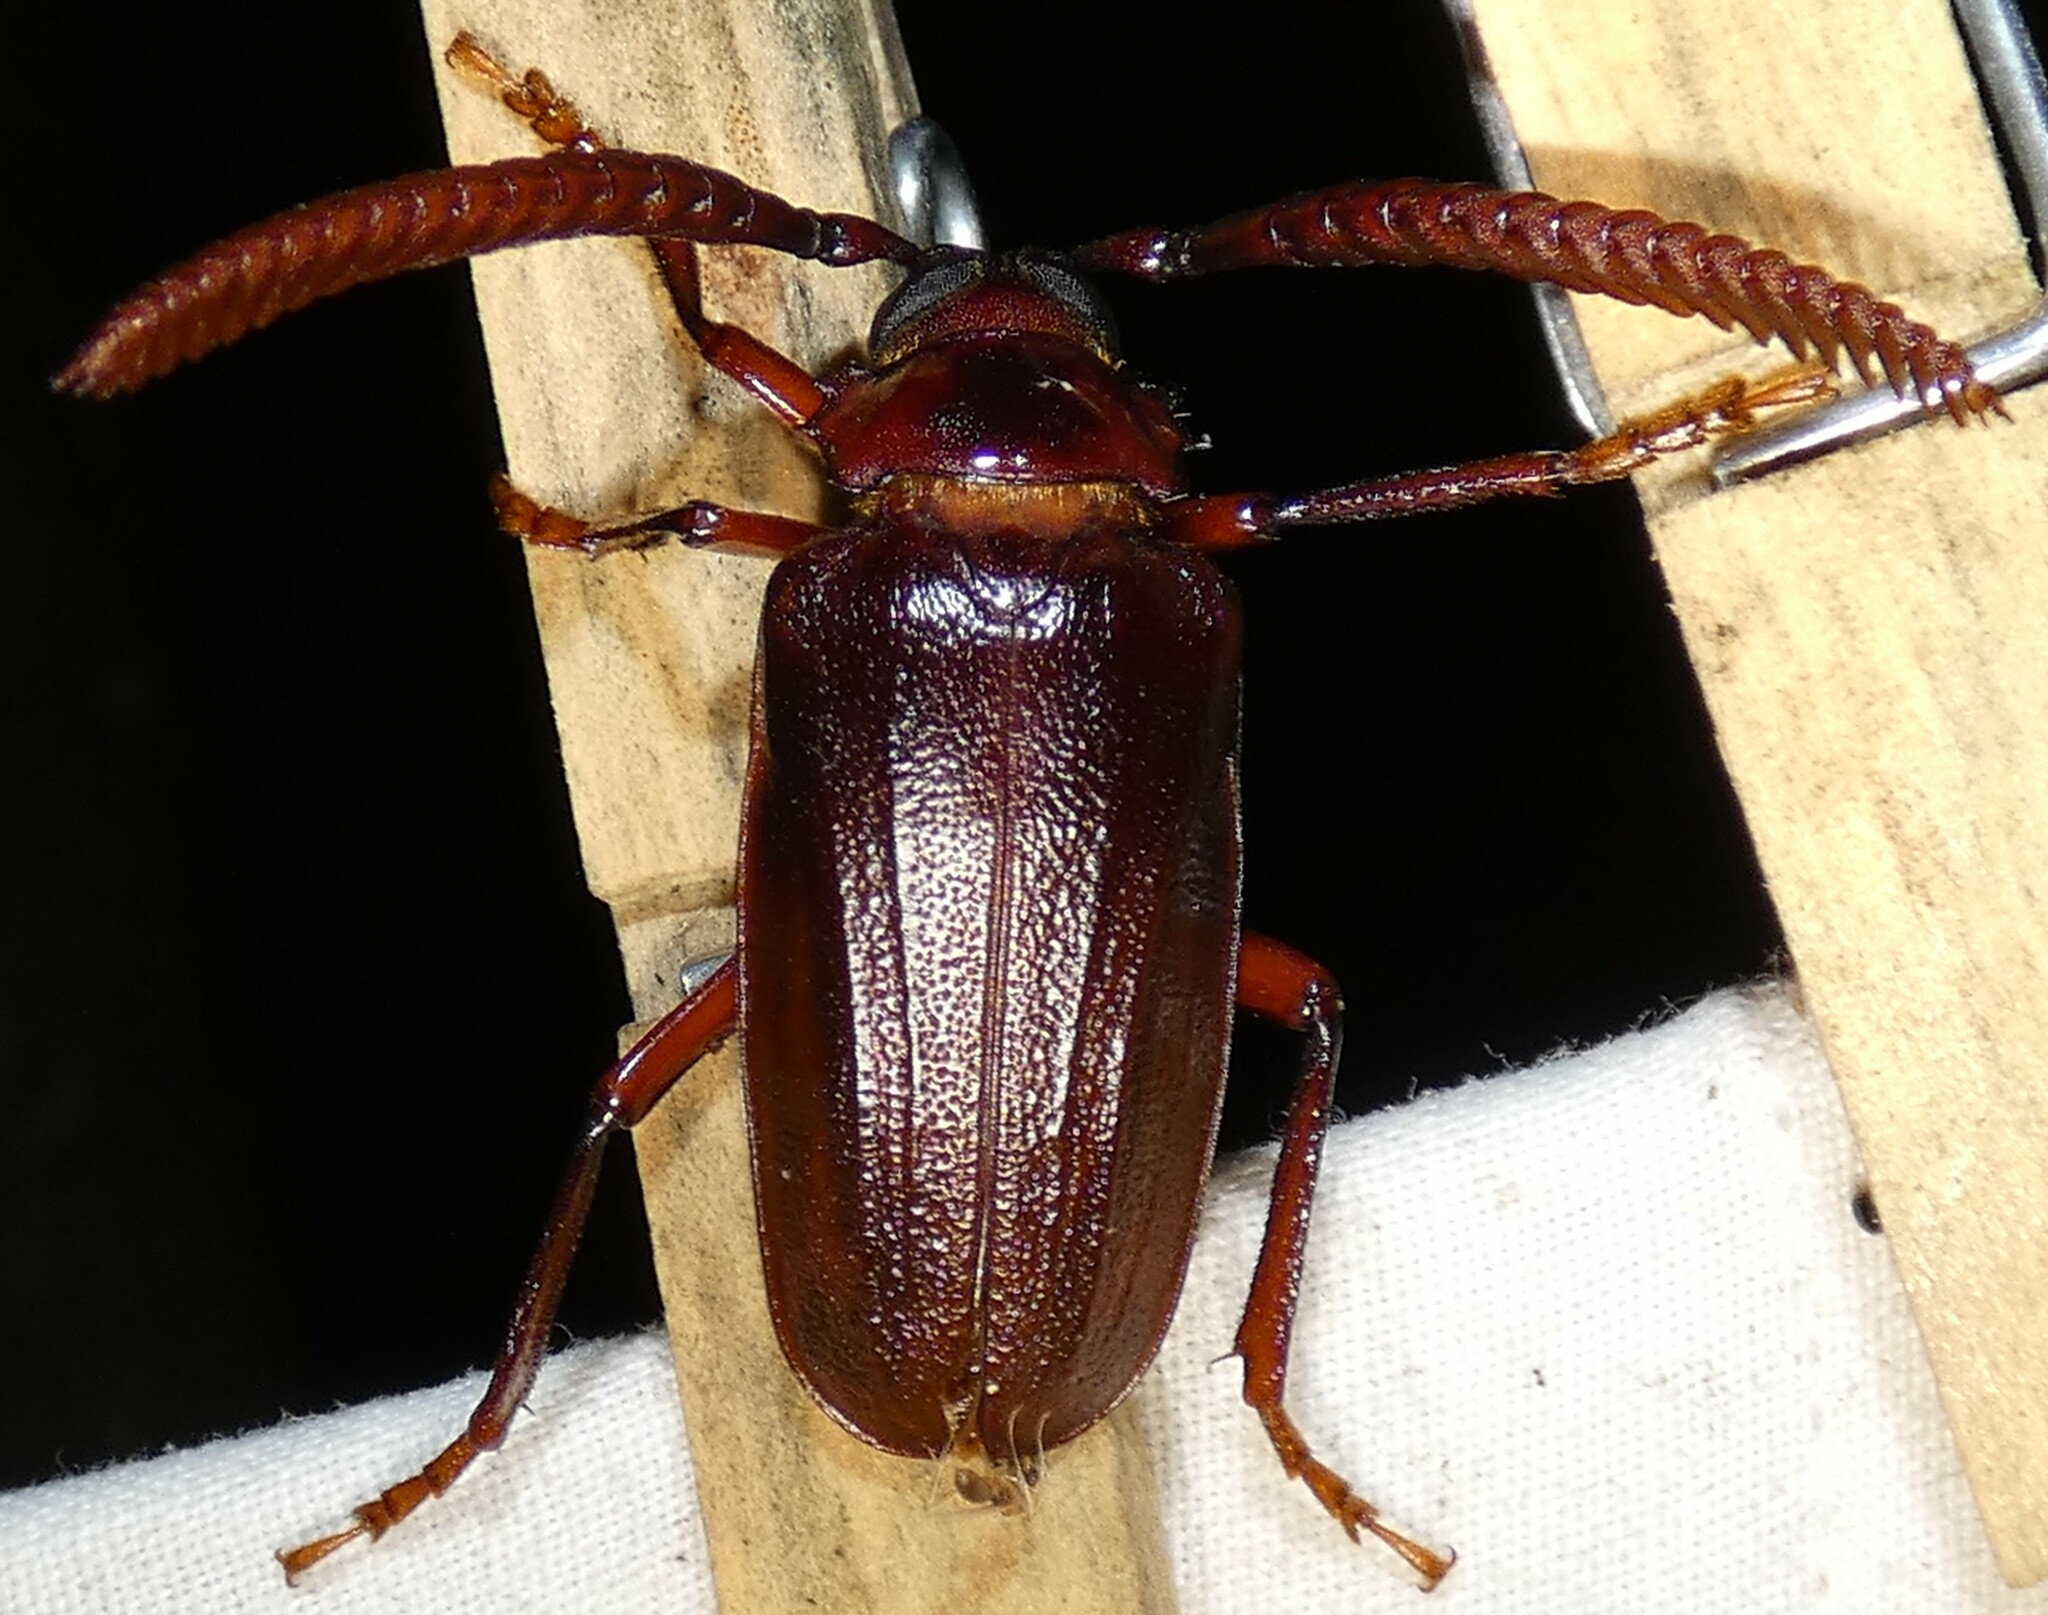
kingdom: Animalia
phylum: Arthropoda
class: Insecta
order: Coleoptera
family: Cerambycidae
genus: Prionus
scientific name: Prionus imbricornis
